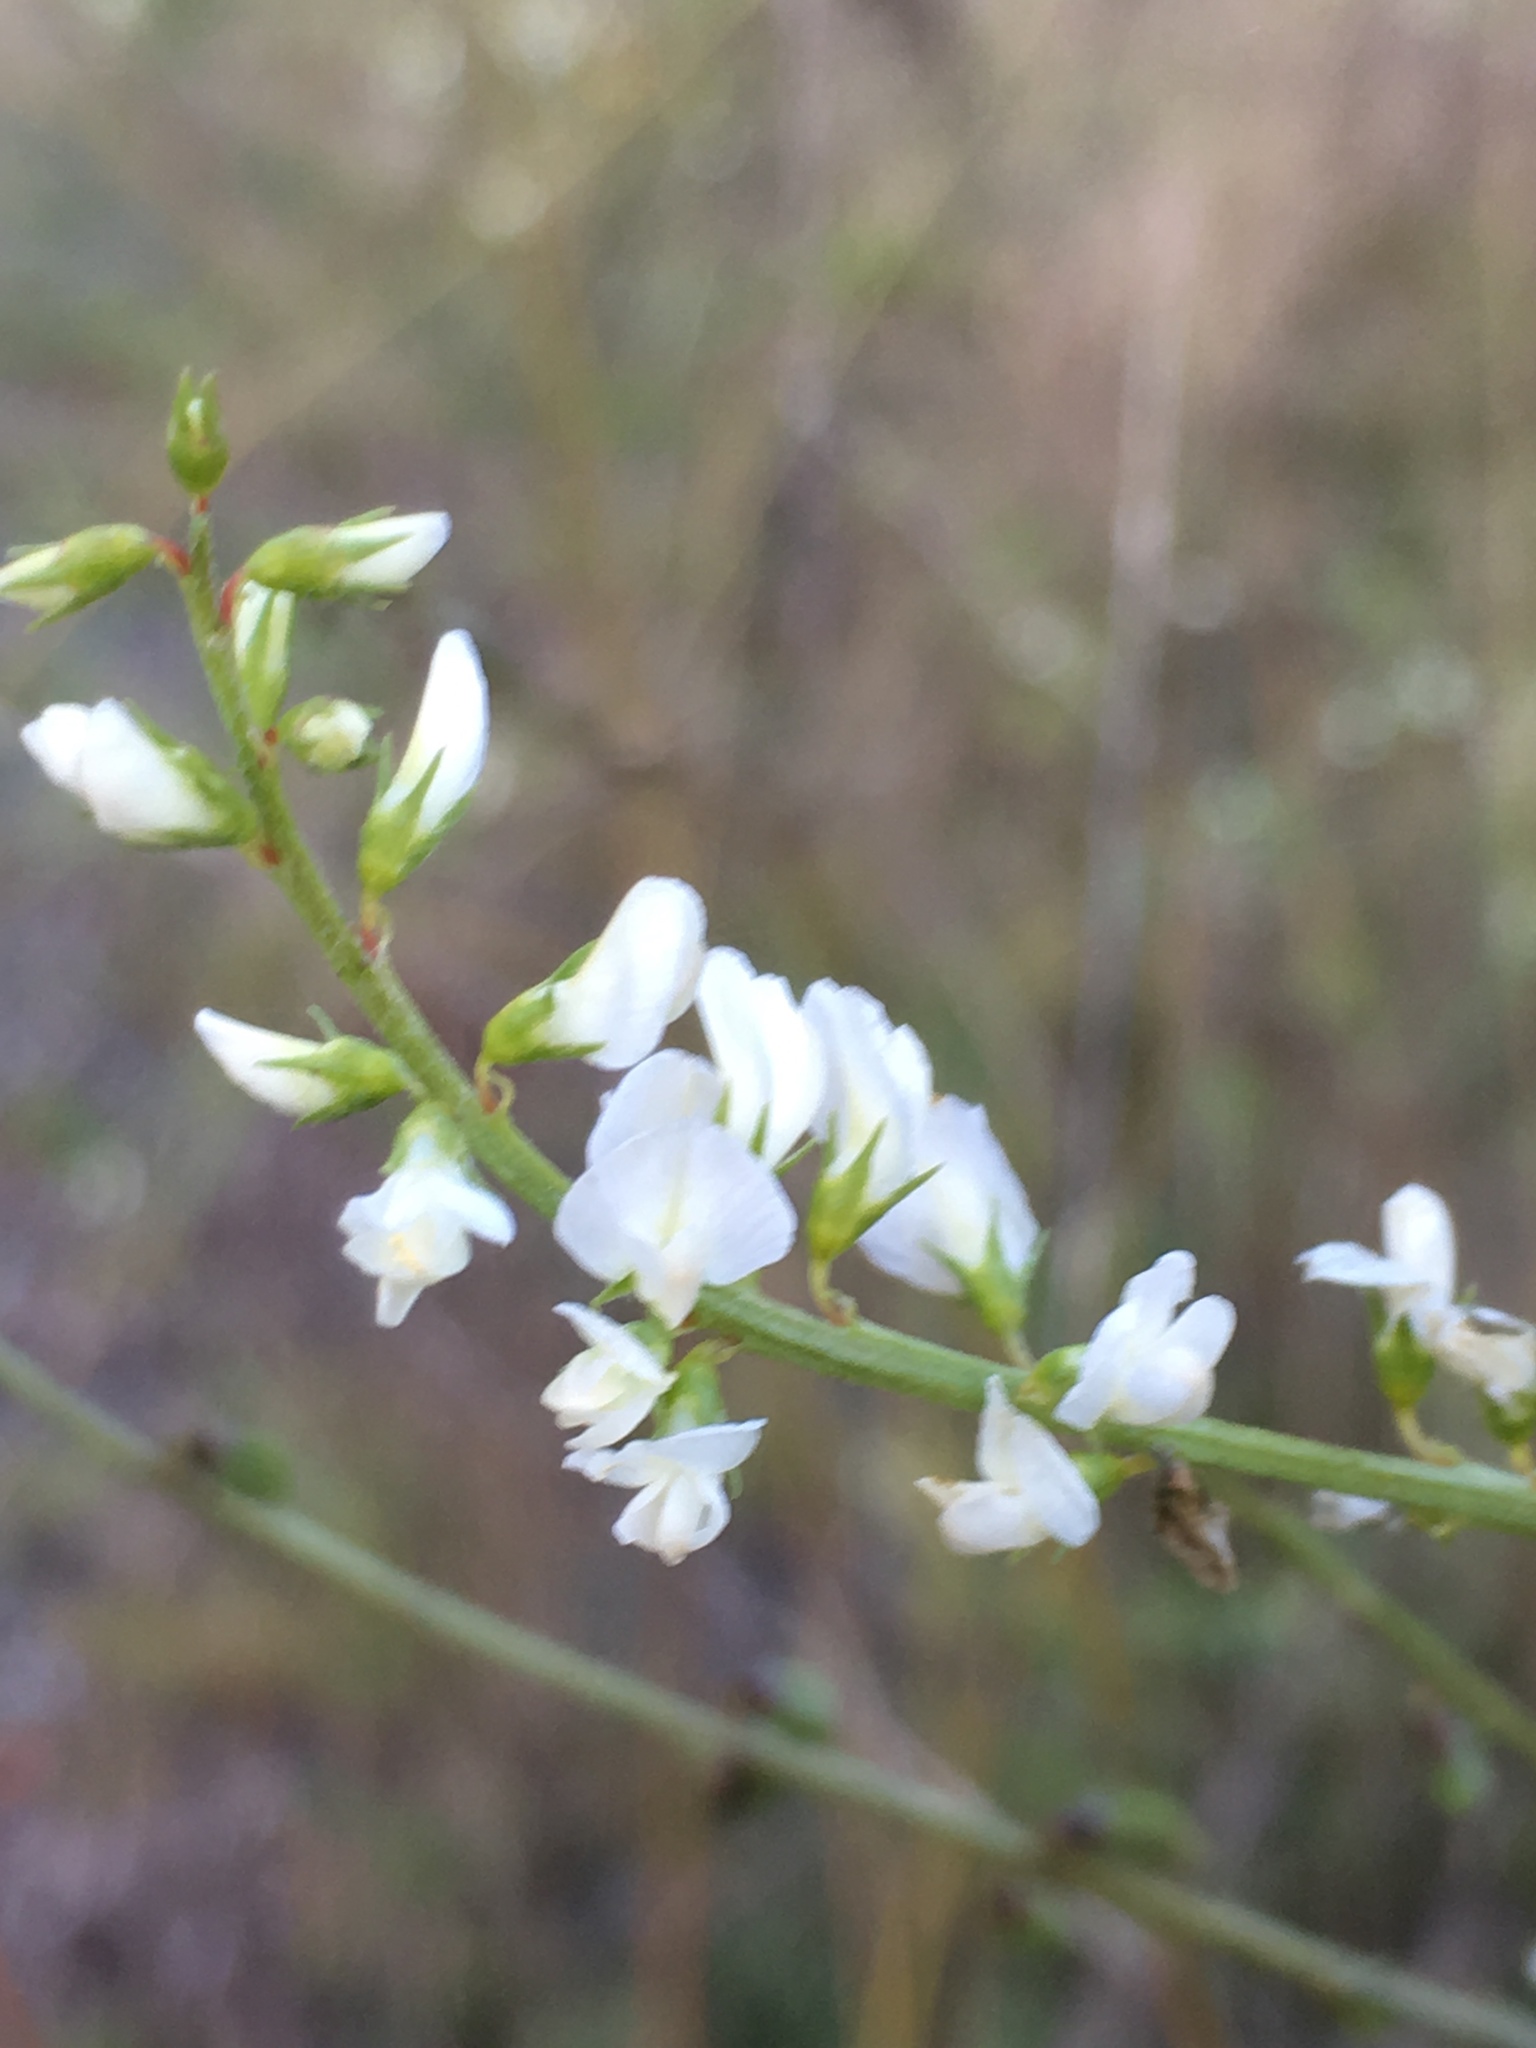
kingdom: Plantae
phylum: Tracheophyta
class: Magnoliopsida
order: Fabales
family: Fabaceae
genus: Melilotus
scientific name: Melilotus albus
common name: White melilot
